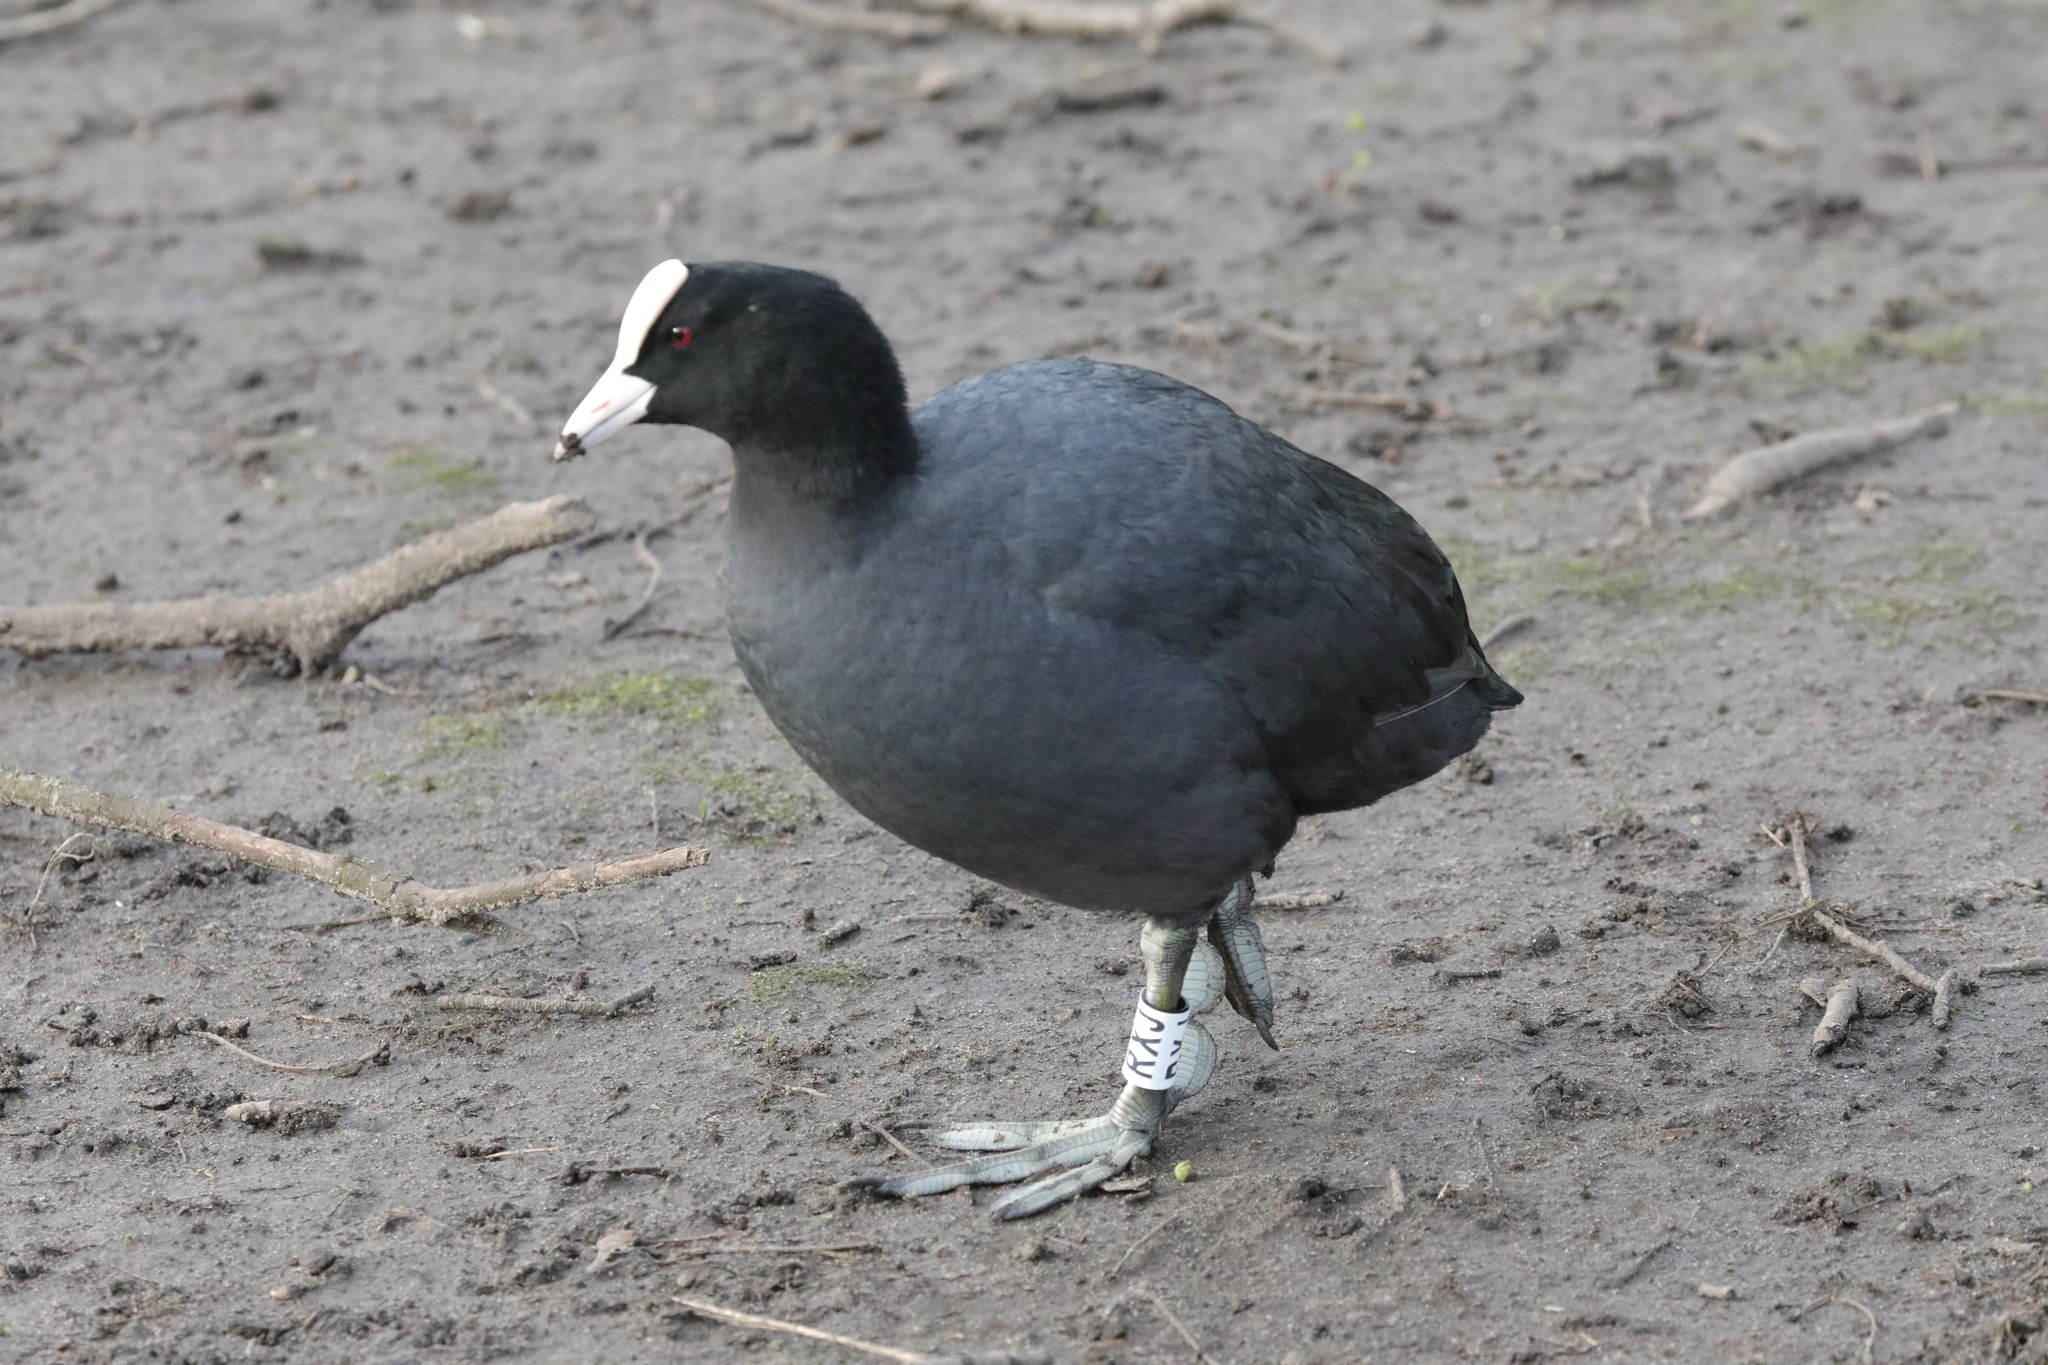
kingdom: Animalia
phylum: Chordata
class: Aves
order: Gruiformes
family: Rallidae
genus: Fulica
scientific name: Fulica atra
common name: Eurasian coot
